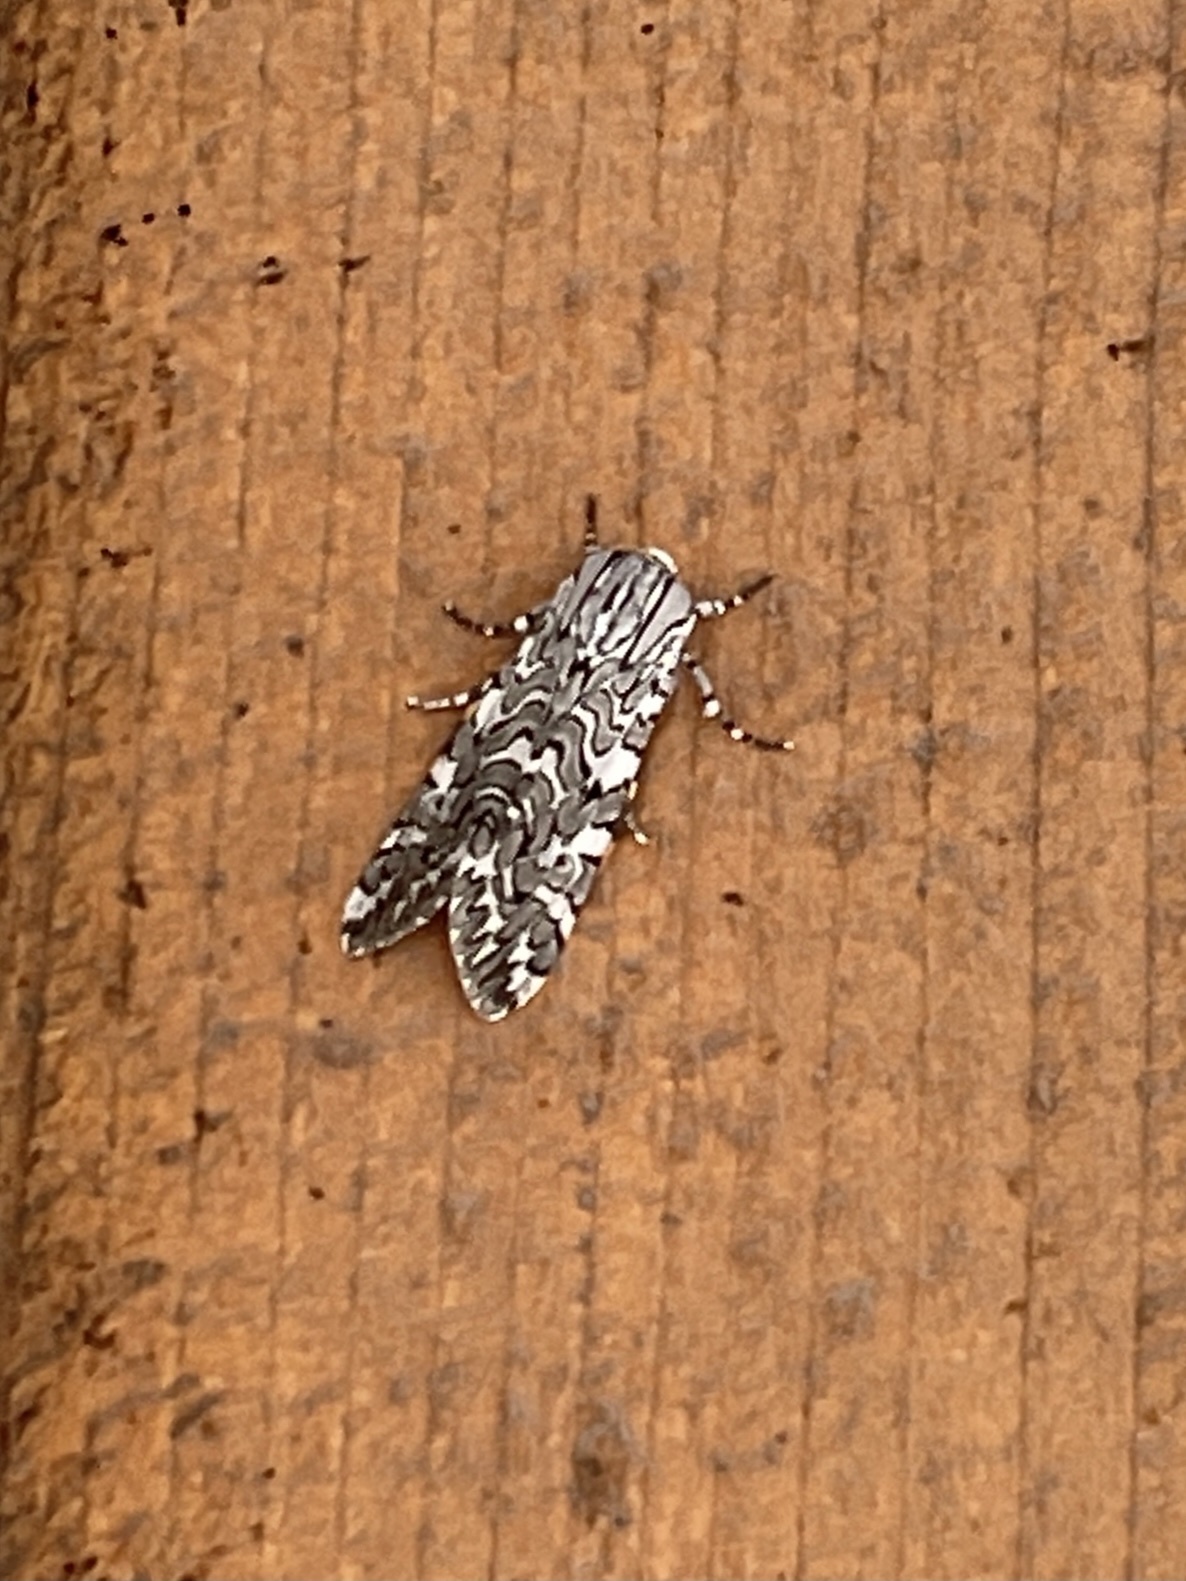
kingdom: Animalia
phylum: Arthropoda
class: Insecta
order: Lepidoptera
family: Erebidae
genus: Arachnis
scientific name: Arachnis picta
